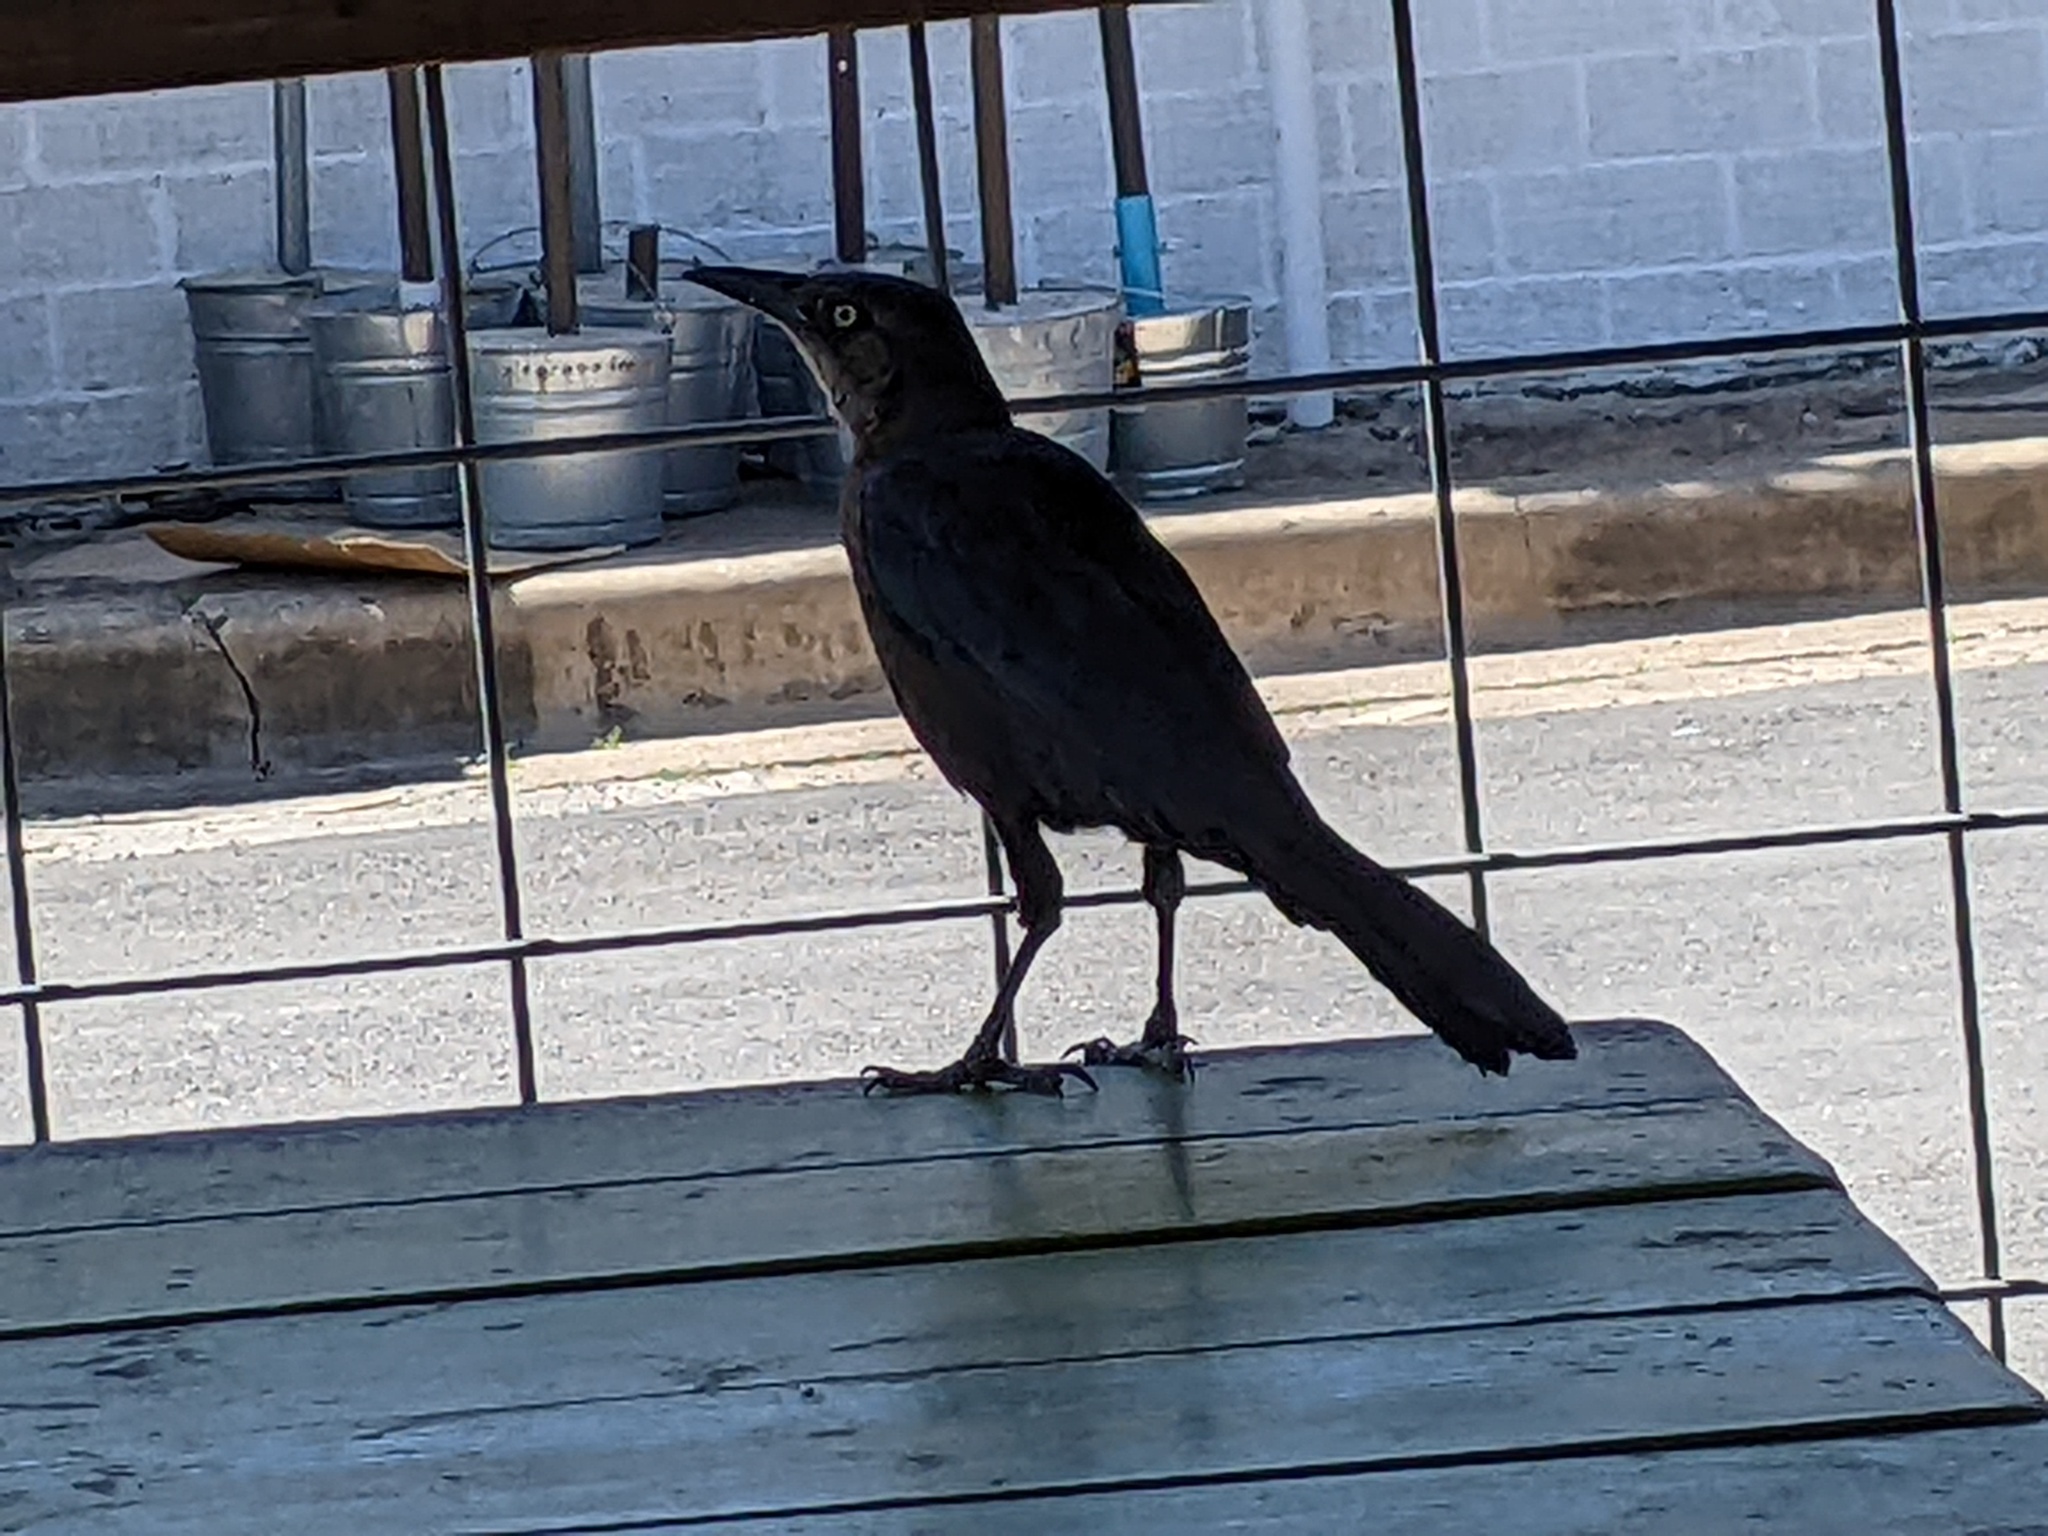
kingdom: Animalia
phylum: Chordata
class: Aves
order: Passeriformes
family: Icteridae
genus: Quiscalus
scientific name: Quiscalus mexicanus
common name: Great-tailed grackle
